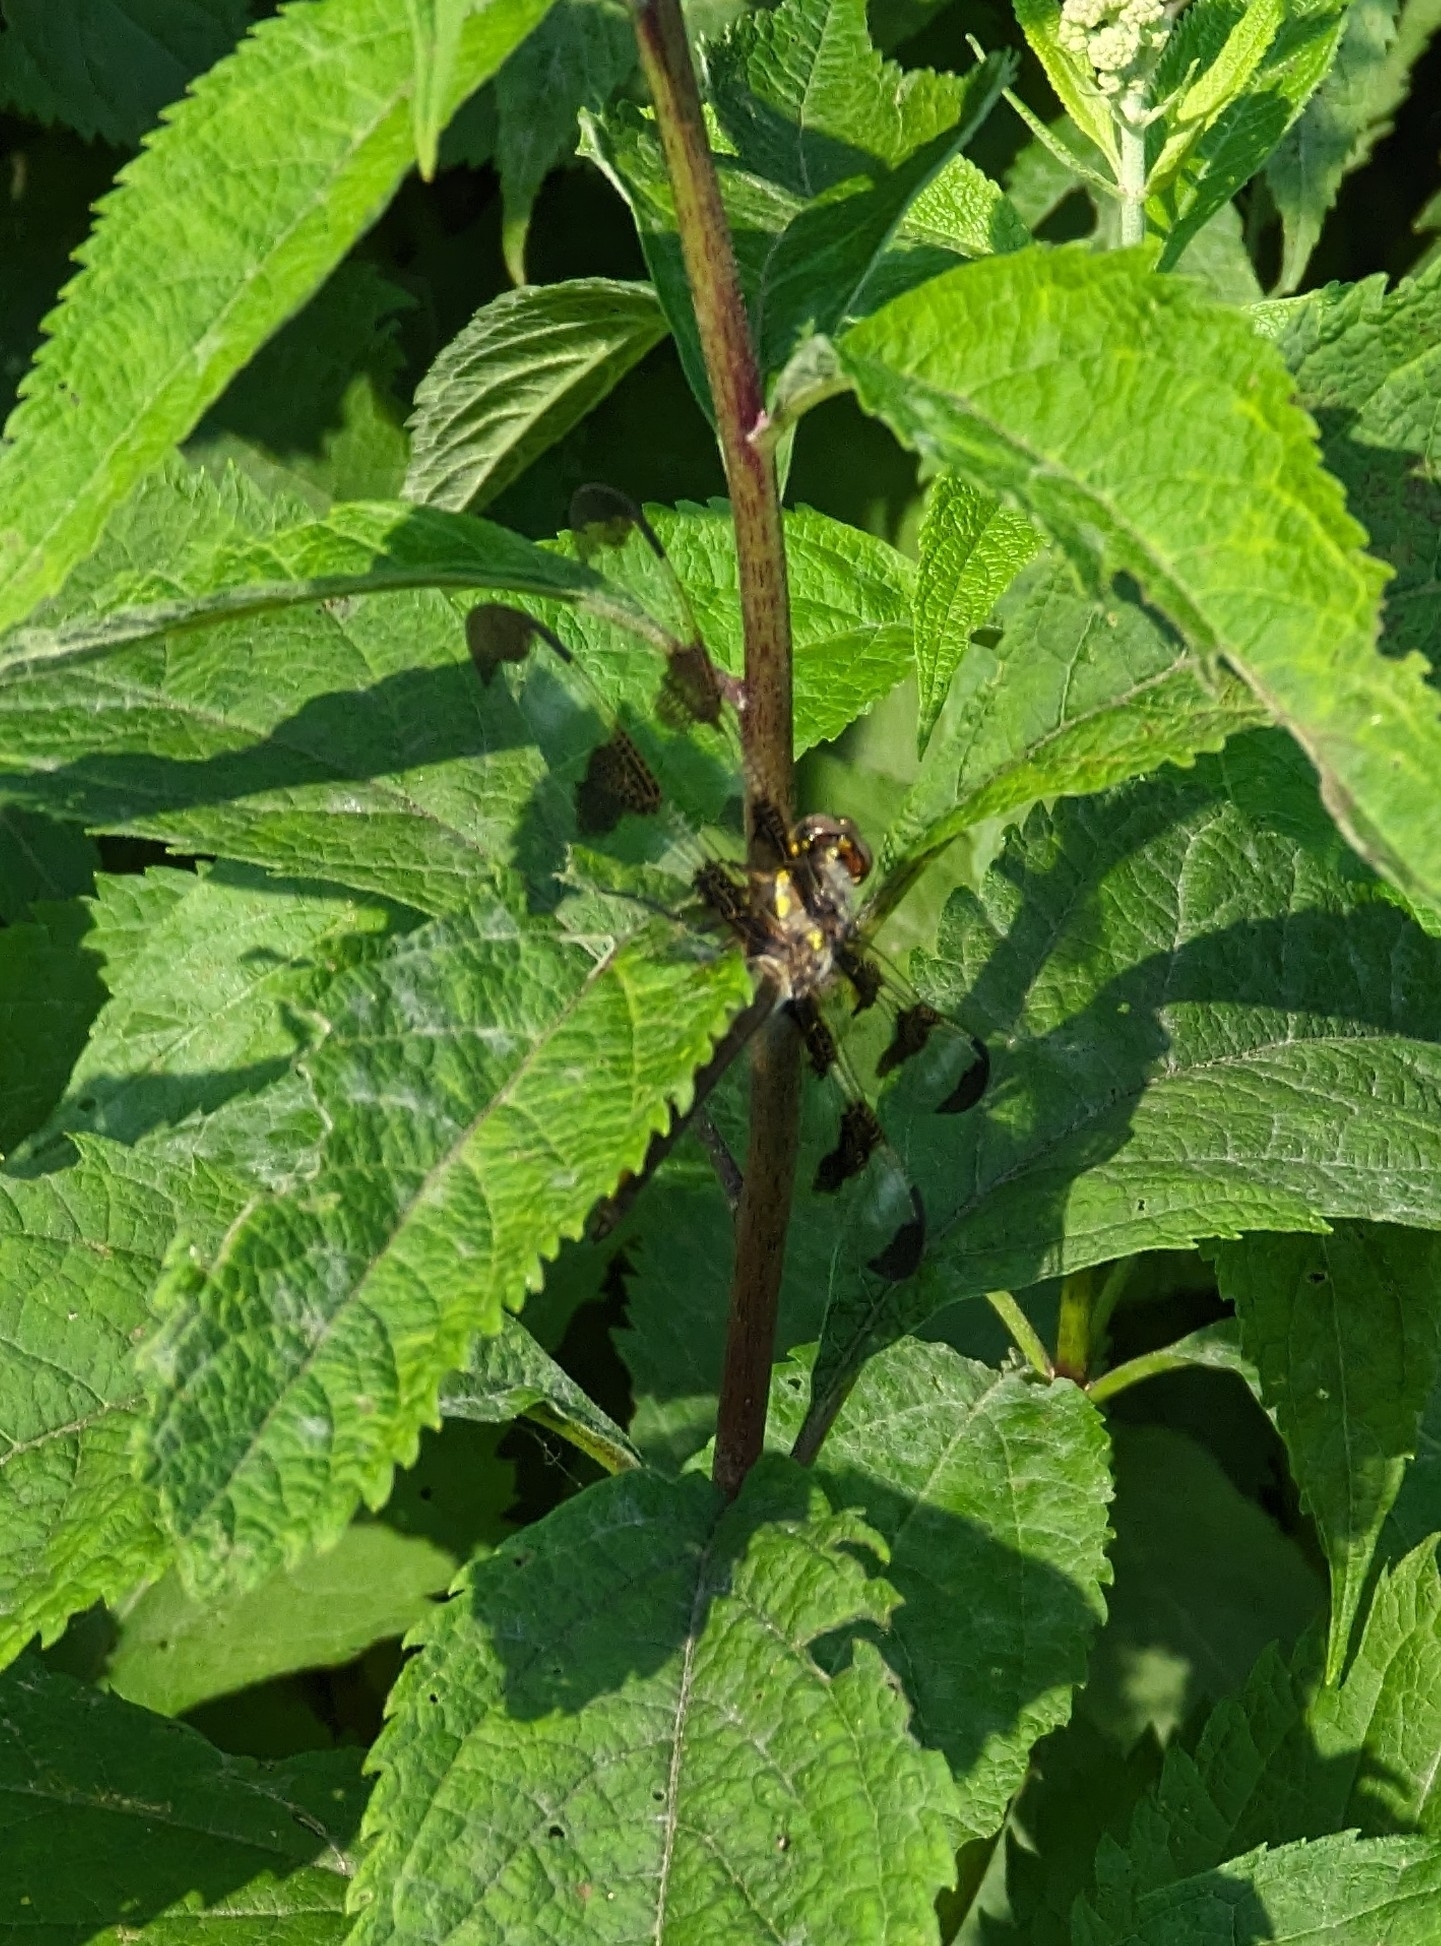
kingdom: Animalia
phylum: Arthropoda
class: Insecta
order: Odonata
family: Libellulidae
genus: Libellula
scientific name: Libellula pulchella
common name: Twelve-spotted skimmer
